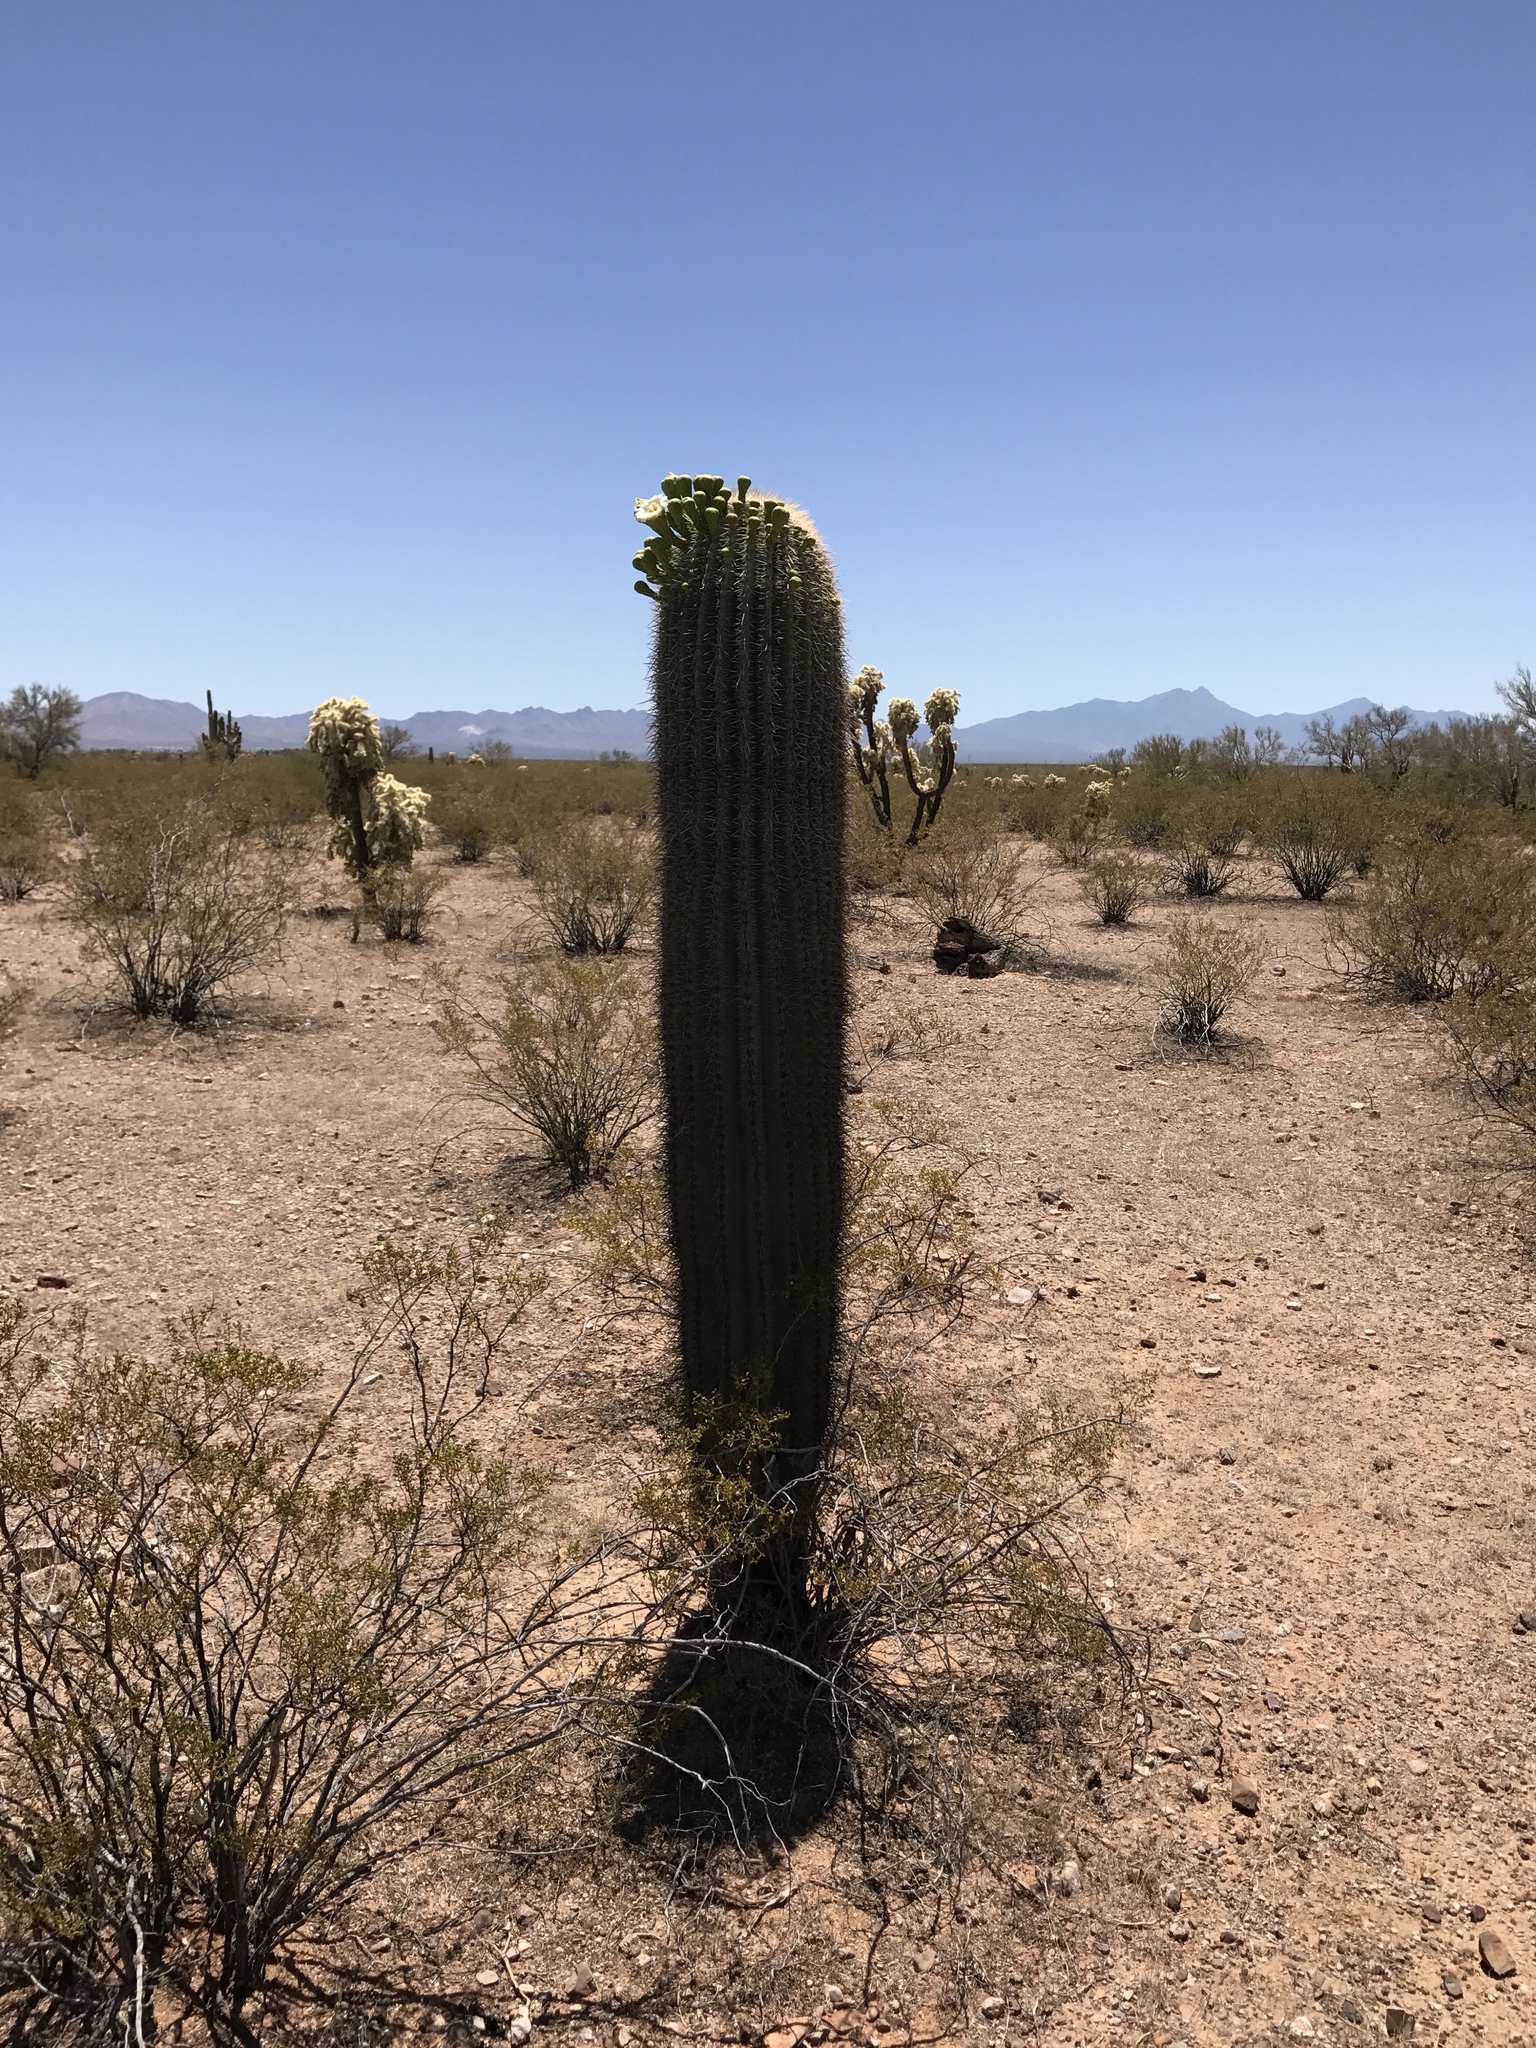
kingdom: Plantae
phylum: Tracheophyta
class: Magnoliopsida
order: Caryophyllales
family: Cactaceae
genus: Carnegiea
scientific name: Carnegiea gigantea
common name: Saguaro
